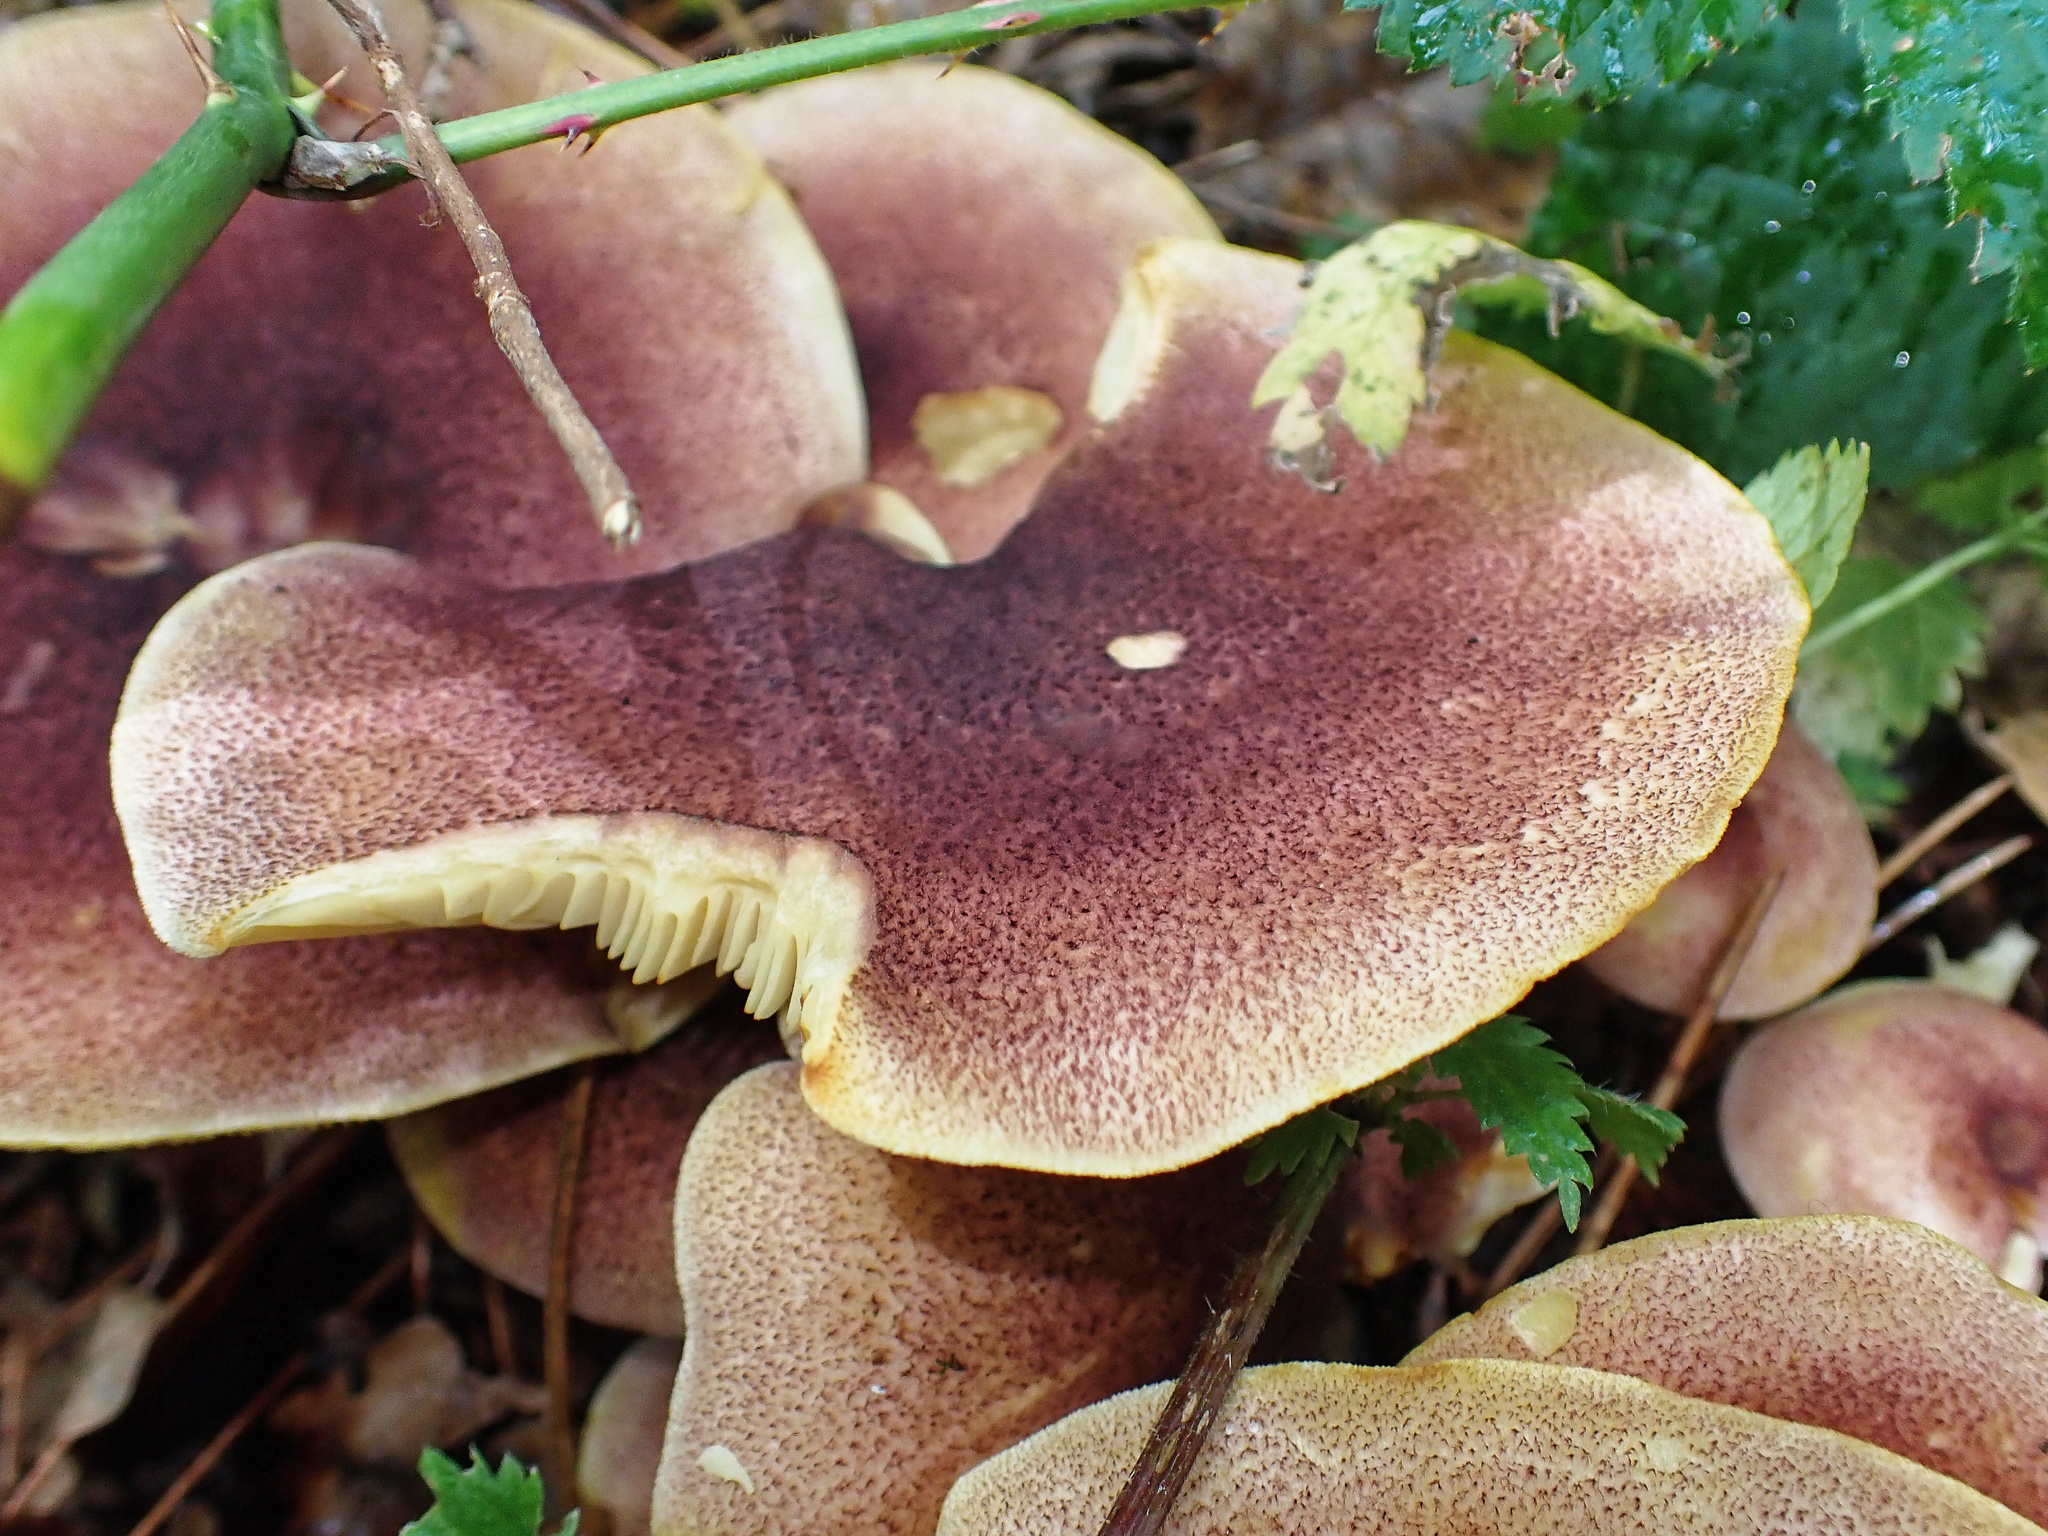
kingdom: Fungi
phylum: Basidiomycota
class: Agaricomycetes
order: Agaricales
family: Tricholomataceae
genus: Tricholomopsis
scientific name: Tricholomopsis rutilans
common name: Plums and custard
